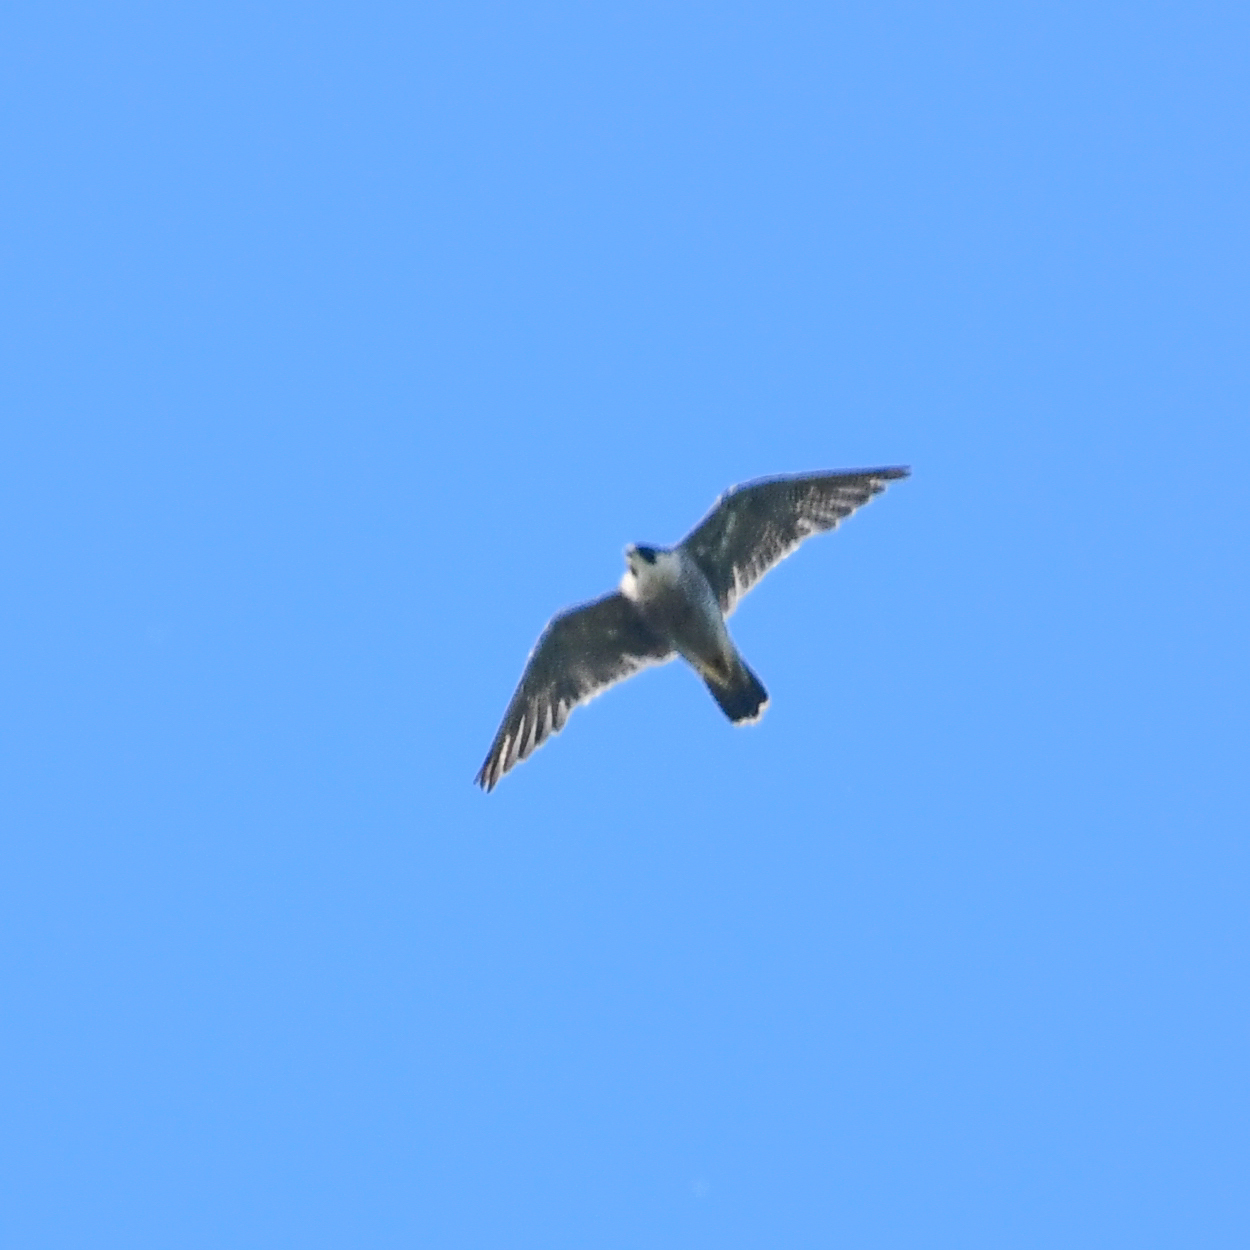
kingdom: Animalia
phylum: Chordata
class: Aves
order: Falconiformes
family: Falconidae
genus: Falco
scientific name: Falco peregrinus
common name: Peregrine falcon
